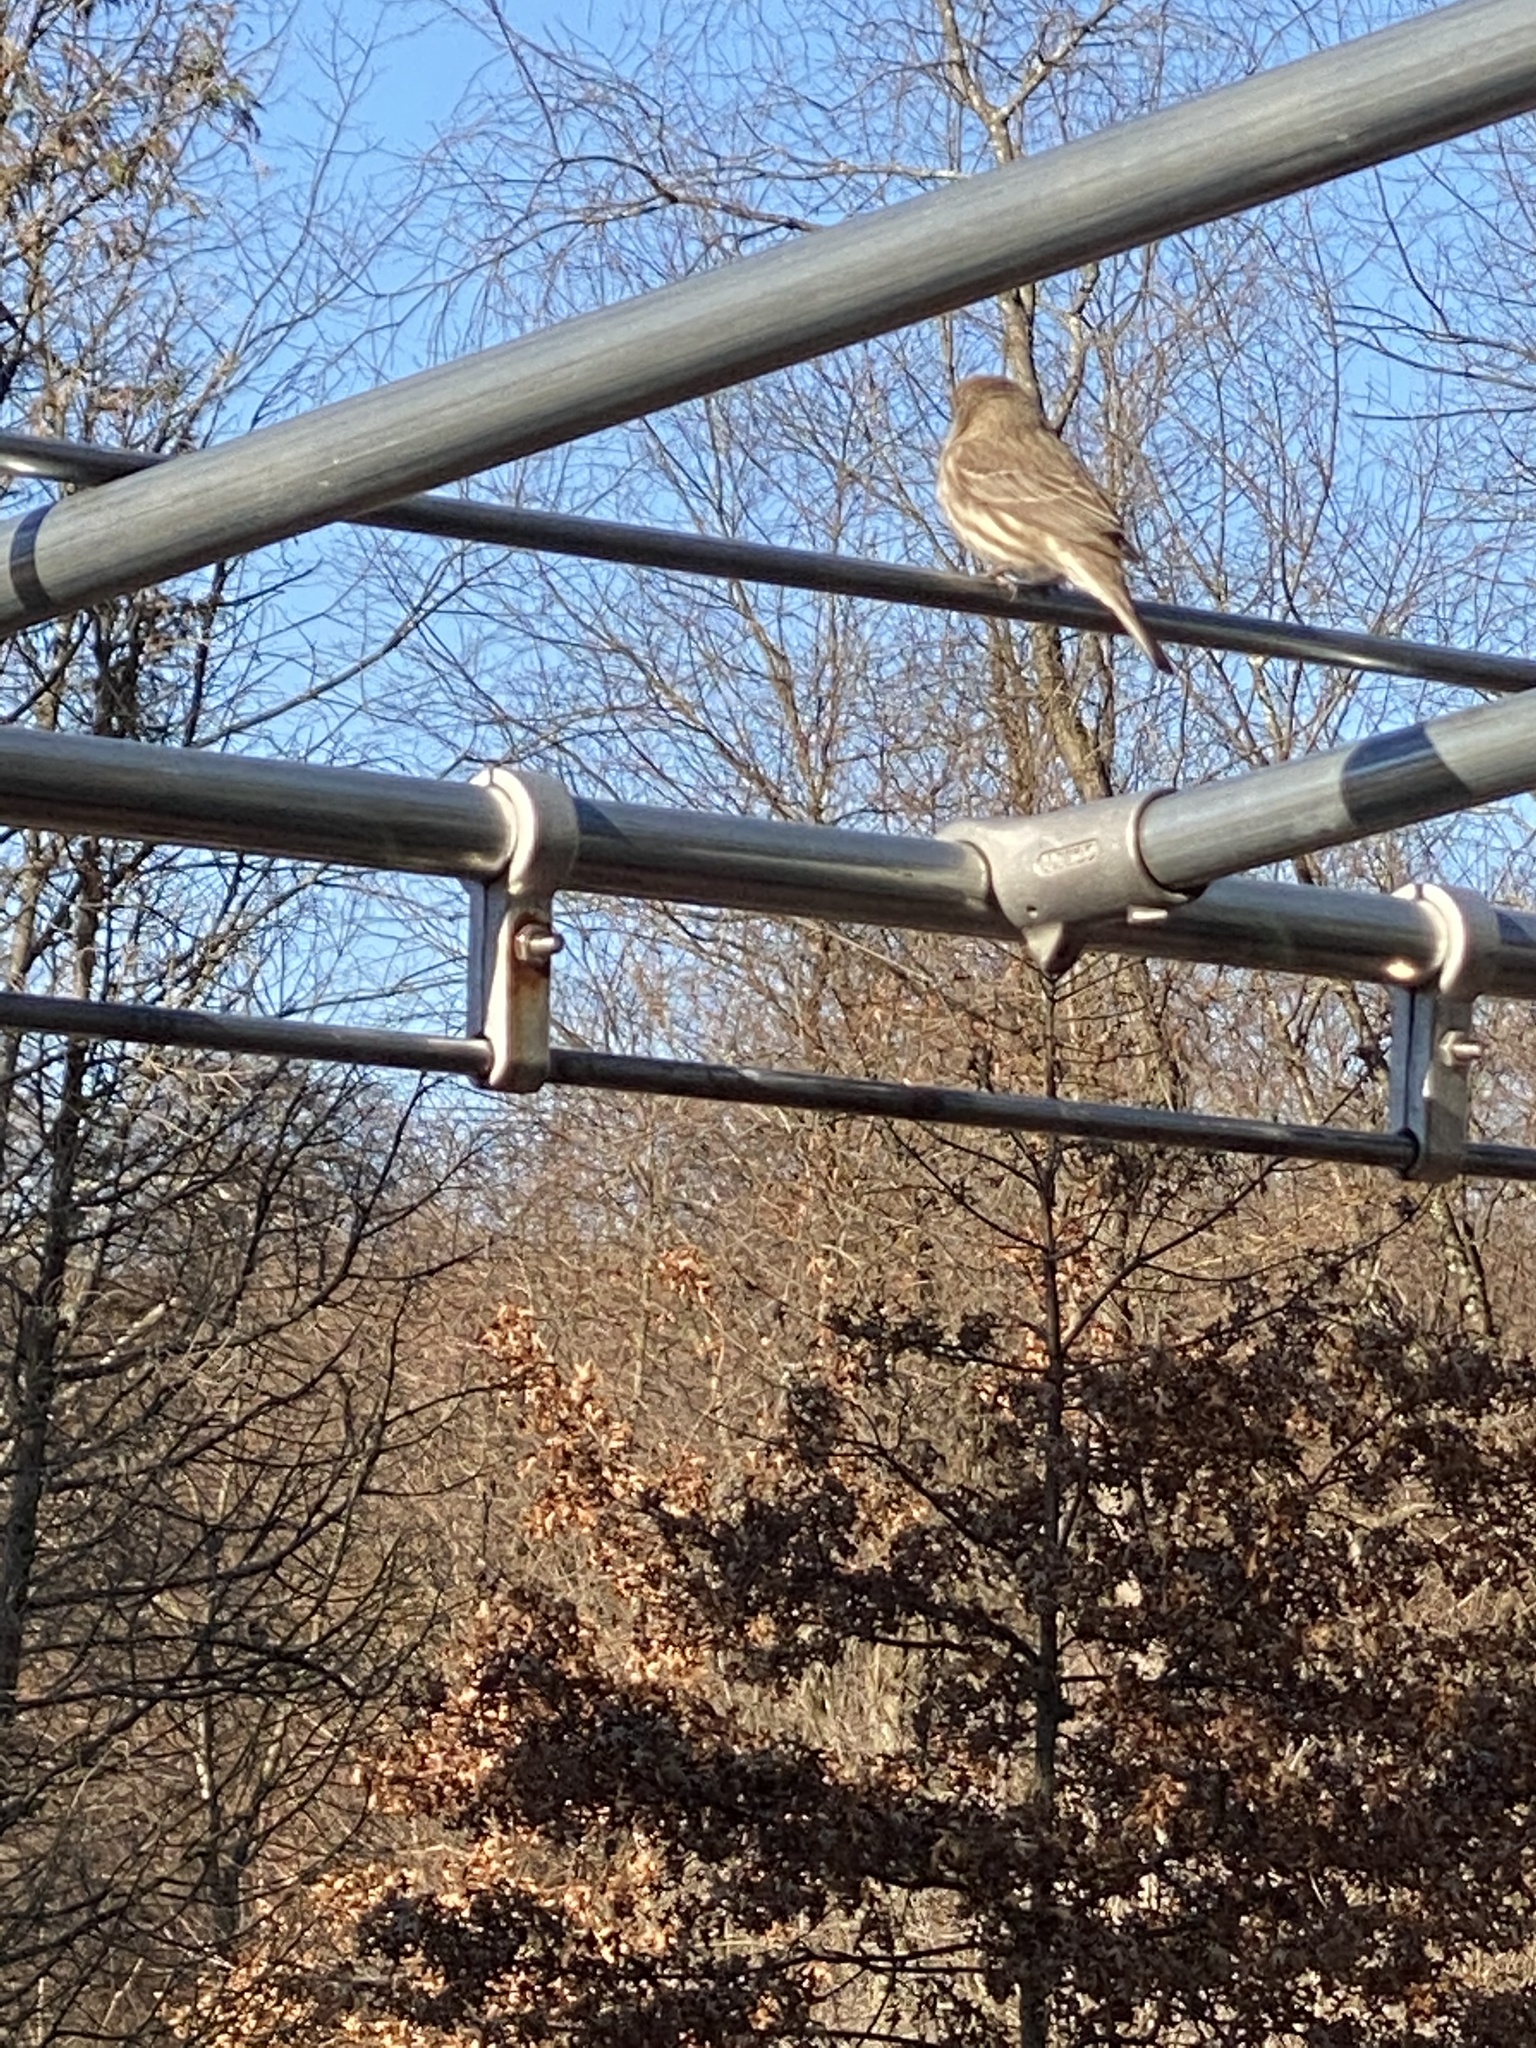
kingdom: Animalia
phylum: Chordata
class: Aves
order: Passeriformes
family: Fringillidae
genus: Haemorhous
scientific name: Haemorhous mexicanus
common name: House finch
